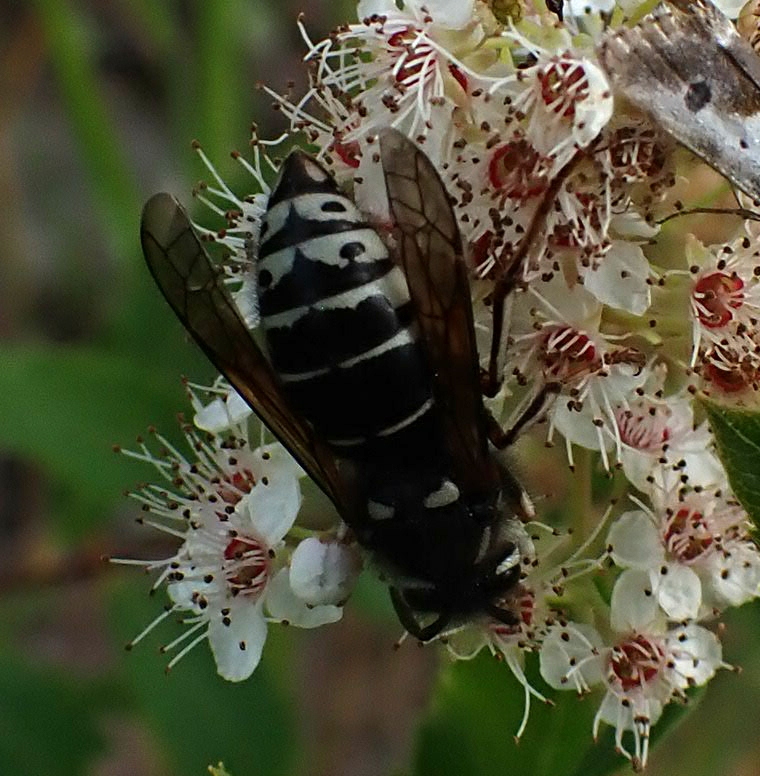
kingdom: Animalia
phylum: Arthropoda
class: Insecta
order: Hymenoptera
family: Vespidae
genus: Dolichovespula
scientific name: Dolichovespula adulterina
